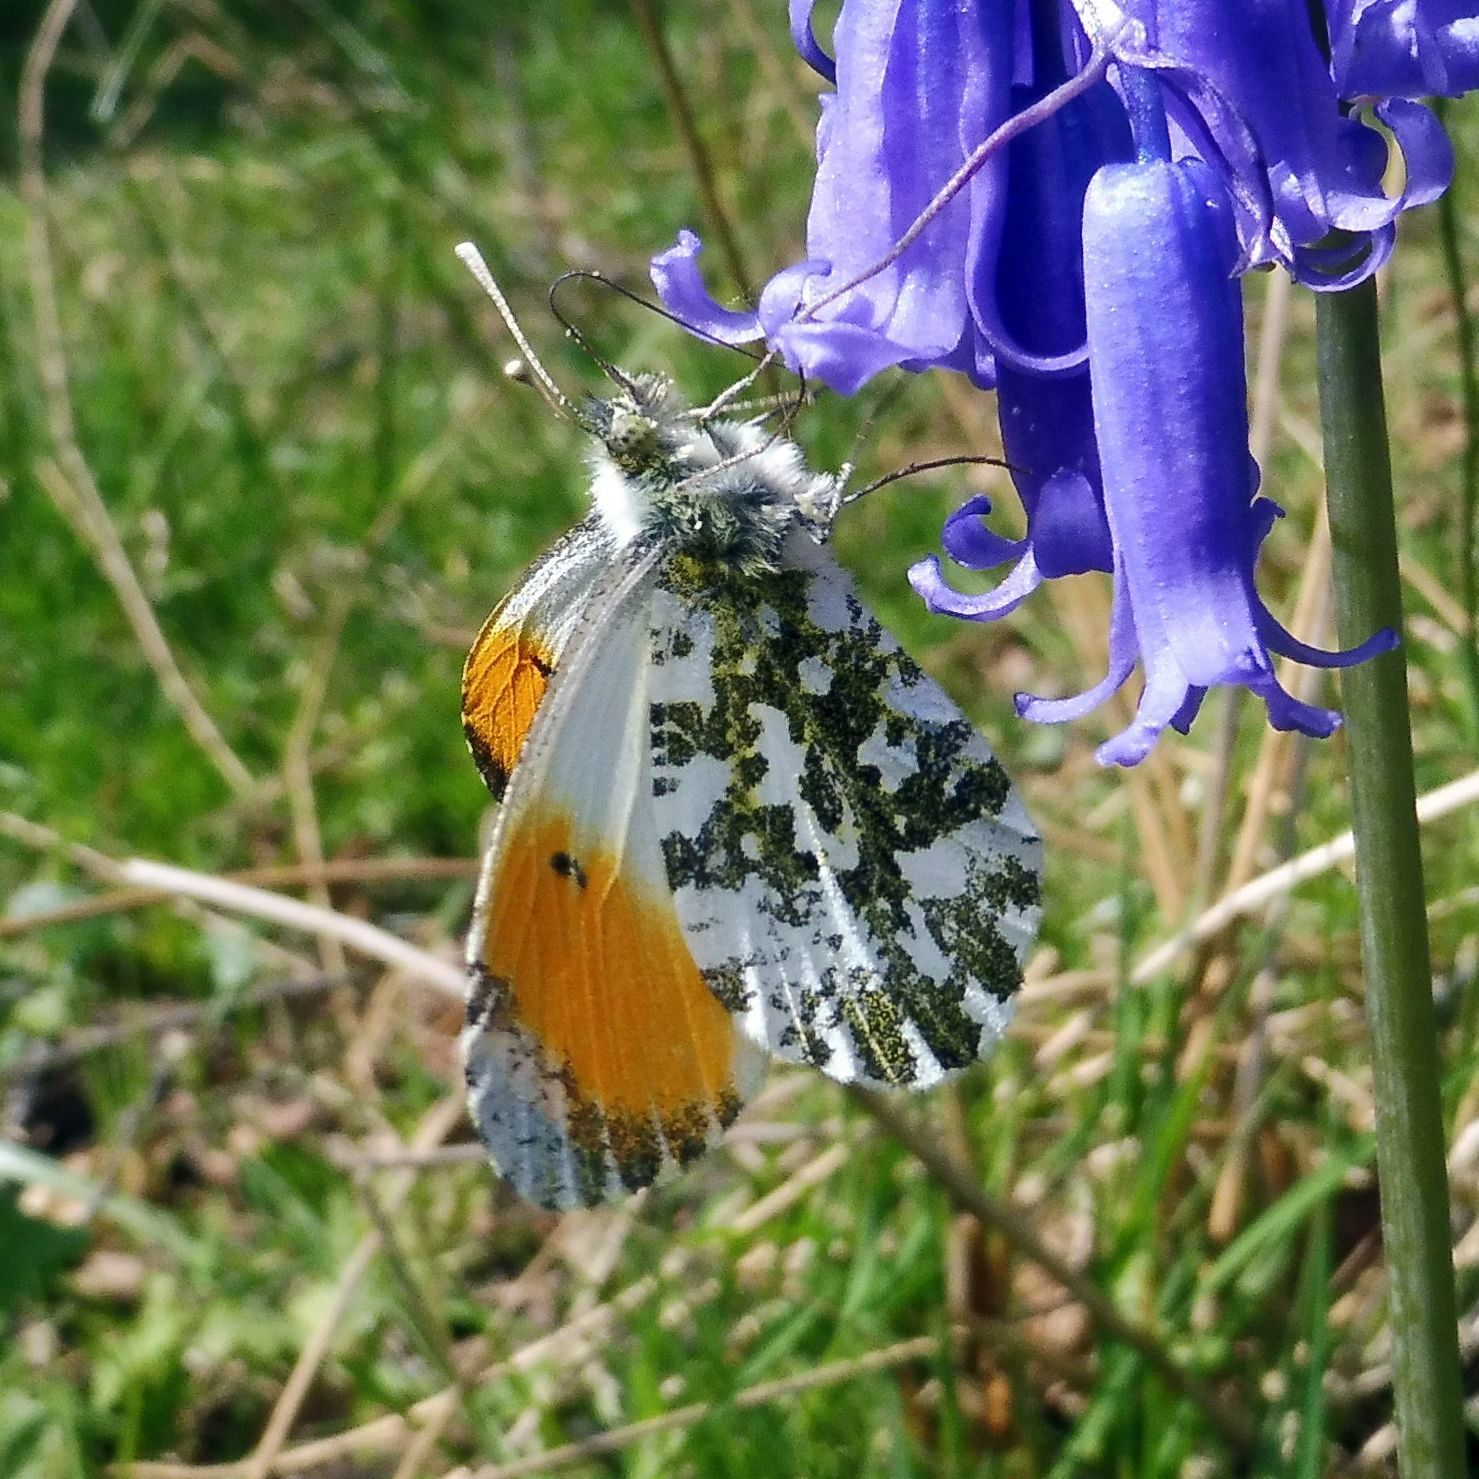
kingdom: Animalia
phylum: Arthropoda
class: Insecta
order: Lepidoptera
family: Pieridae
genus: Anthocharis
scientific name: Anthocharis cardamines
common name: Orange-tip
